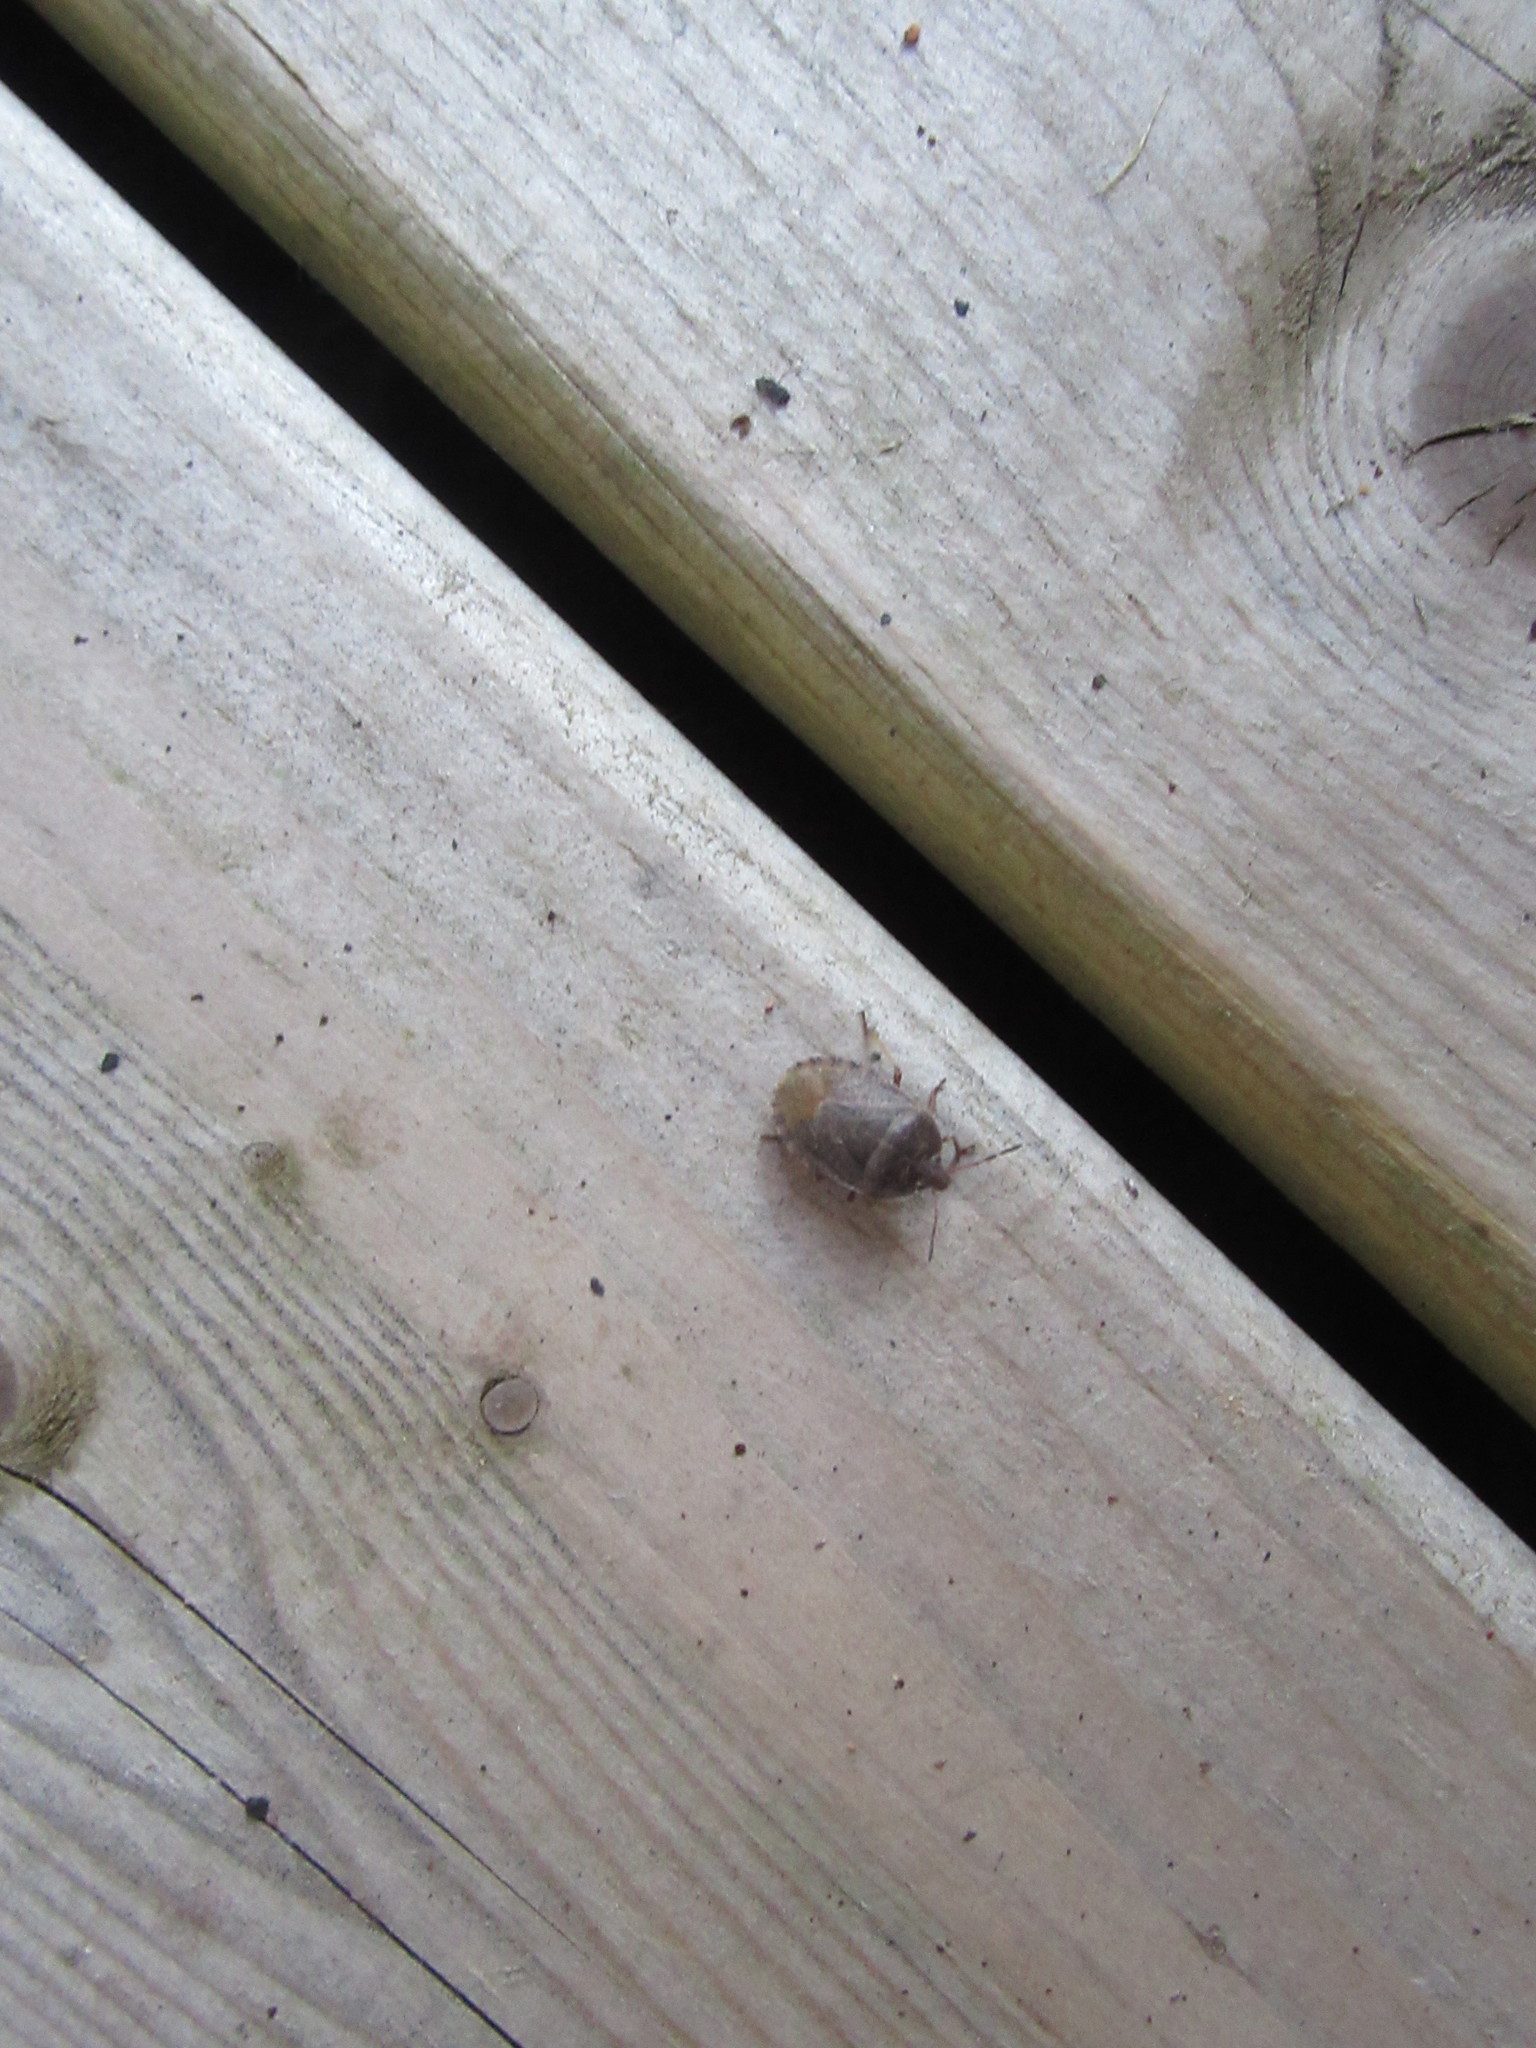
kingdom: Animalia
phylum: Arthropoda
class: Insecta
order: Hemiptera
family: Pentatomidae
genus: Menecles
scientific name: Menecles insertus
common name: Elf shoe stink bug
